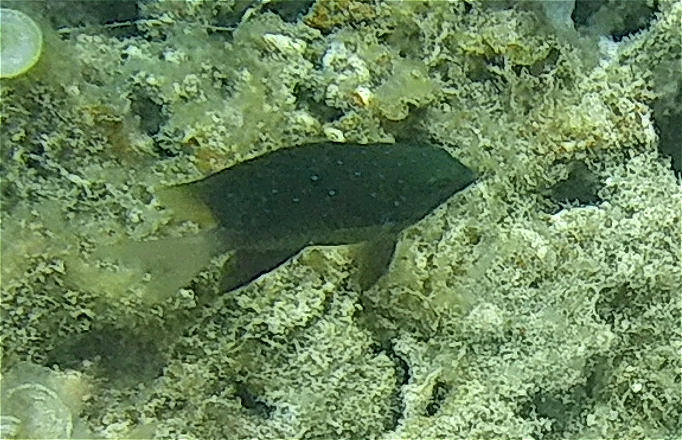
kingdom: Animalia
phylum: Chordata
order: Perciformes
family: Pomacentridae
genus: Plectroglyphidodon
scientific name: Plectroglyphidodon lacrymatus
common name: Jewel damsel
